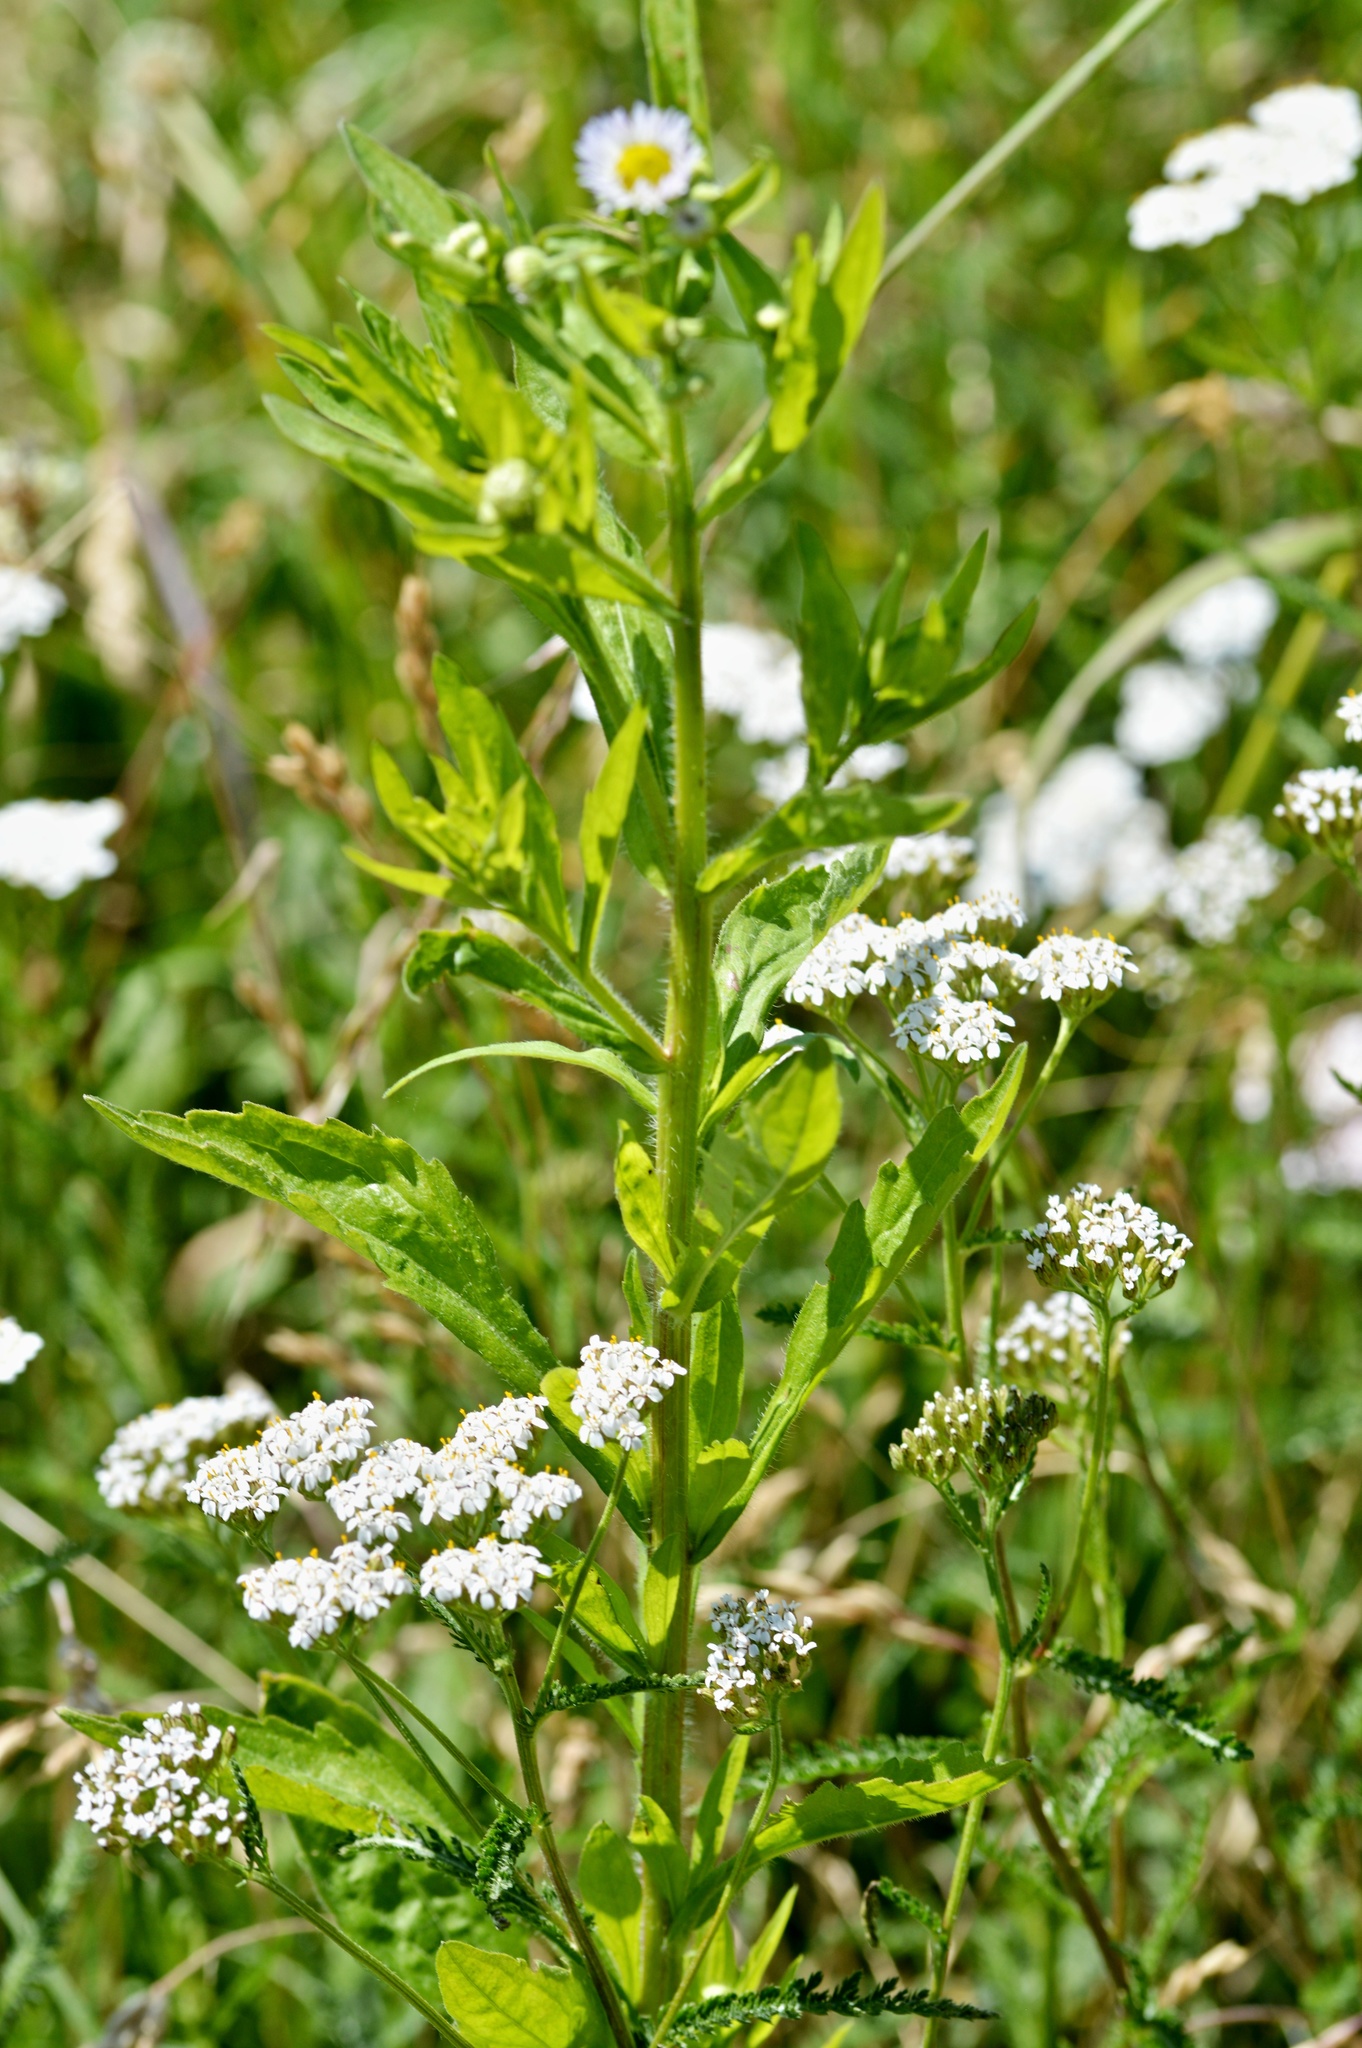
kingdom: Plantae
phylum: Tracheophyta
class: Magnoliopsida
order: Asterales
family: Asteraceae
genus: Erigeron
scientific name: Erigeron annuus
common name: Tall fleabane
